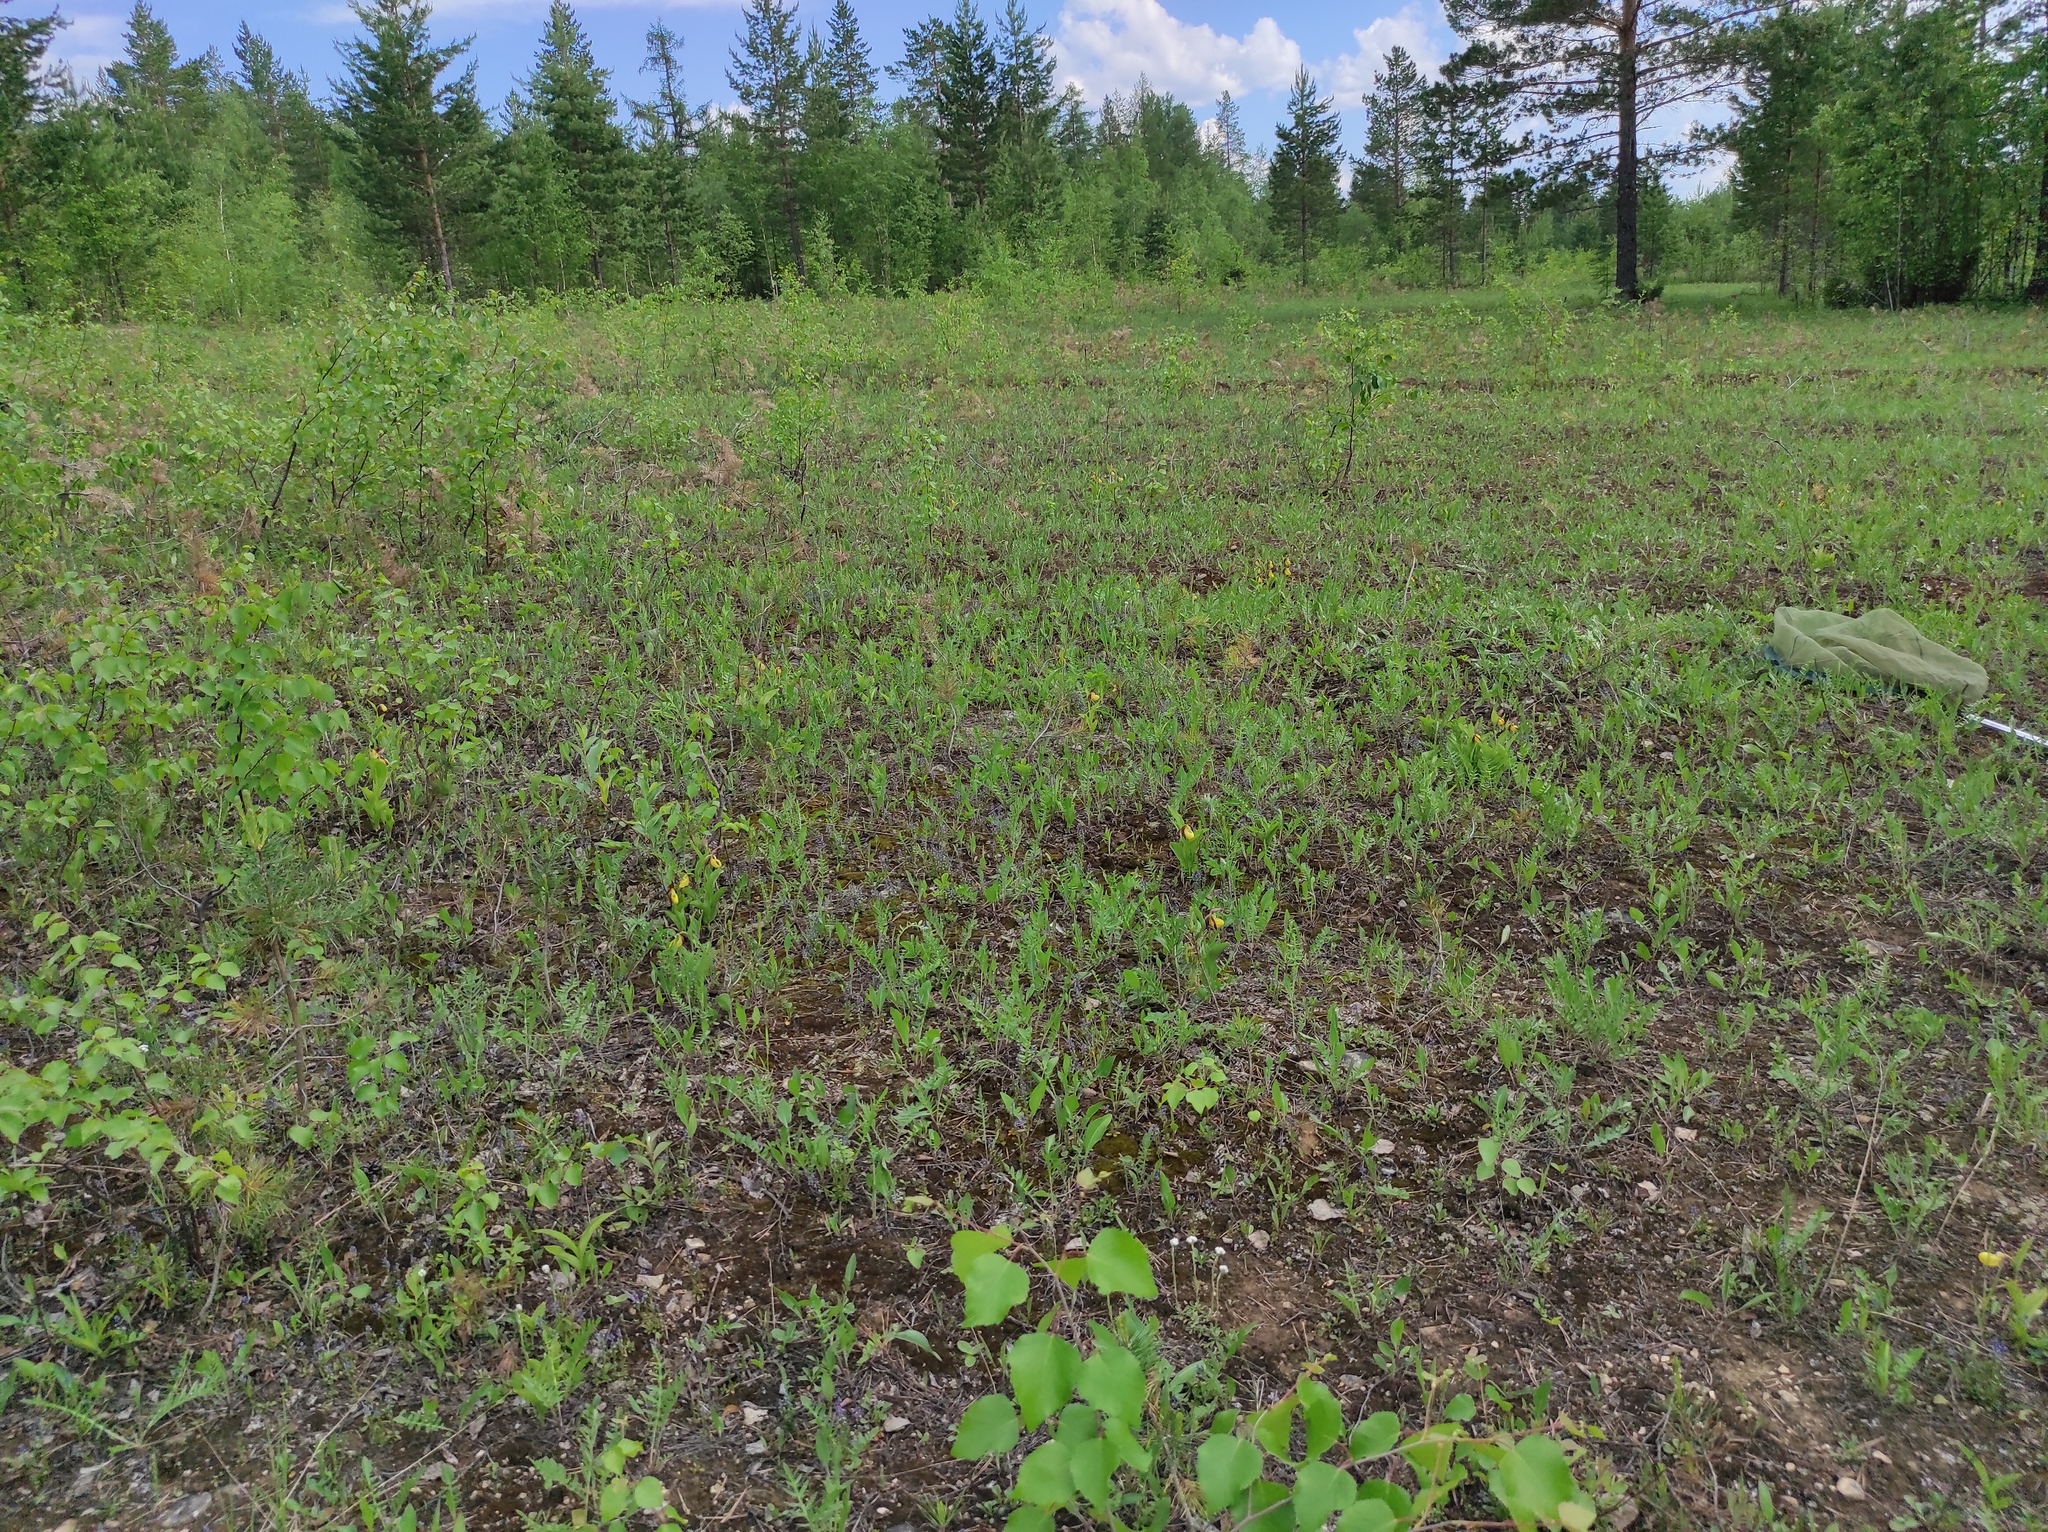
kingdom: Plantae
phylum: Tracheophyta
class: Pinopsida
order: Pinales
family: Pinaceae
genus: Pinus
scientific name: Pinus sylvestris
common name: Scots pine
